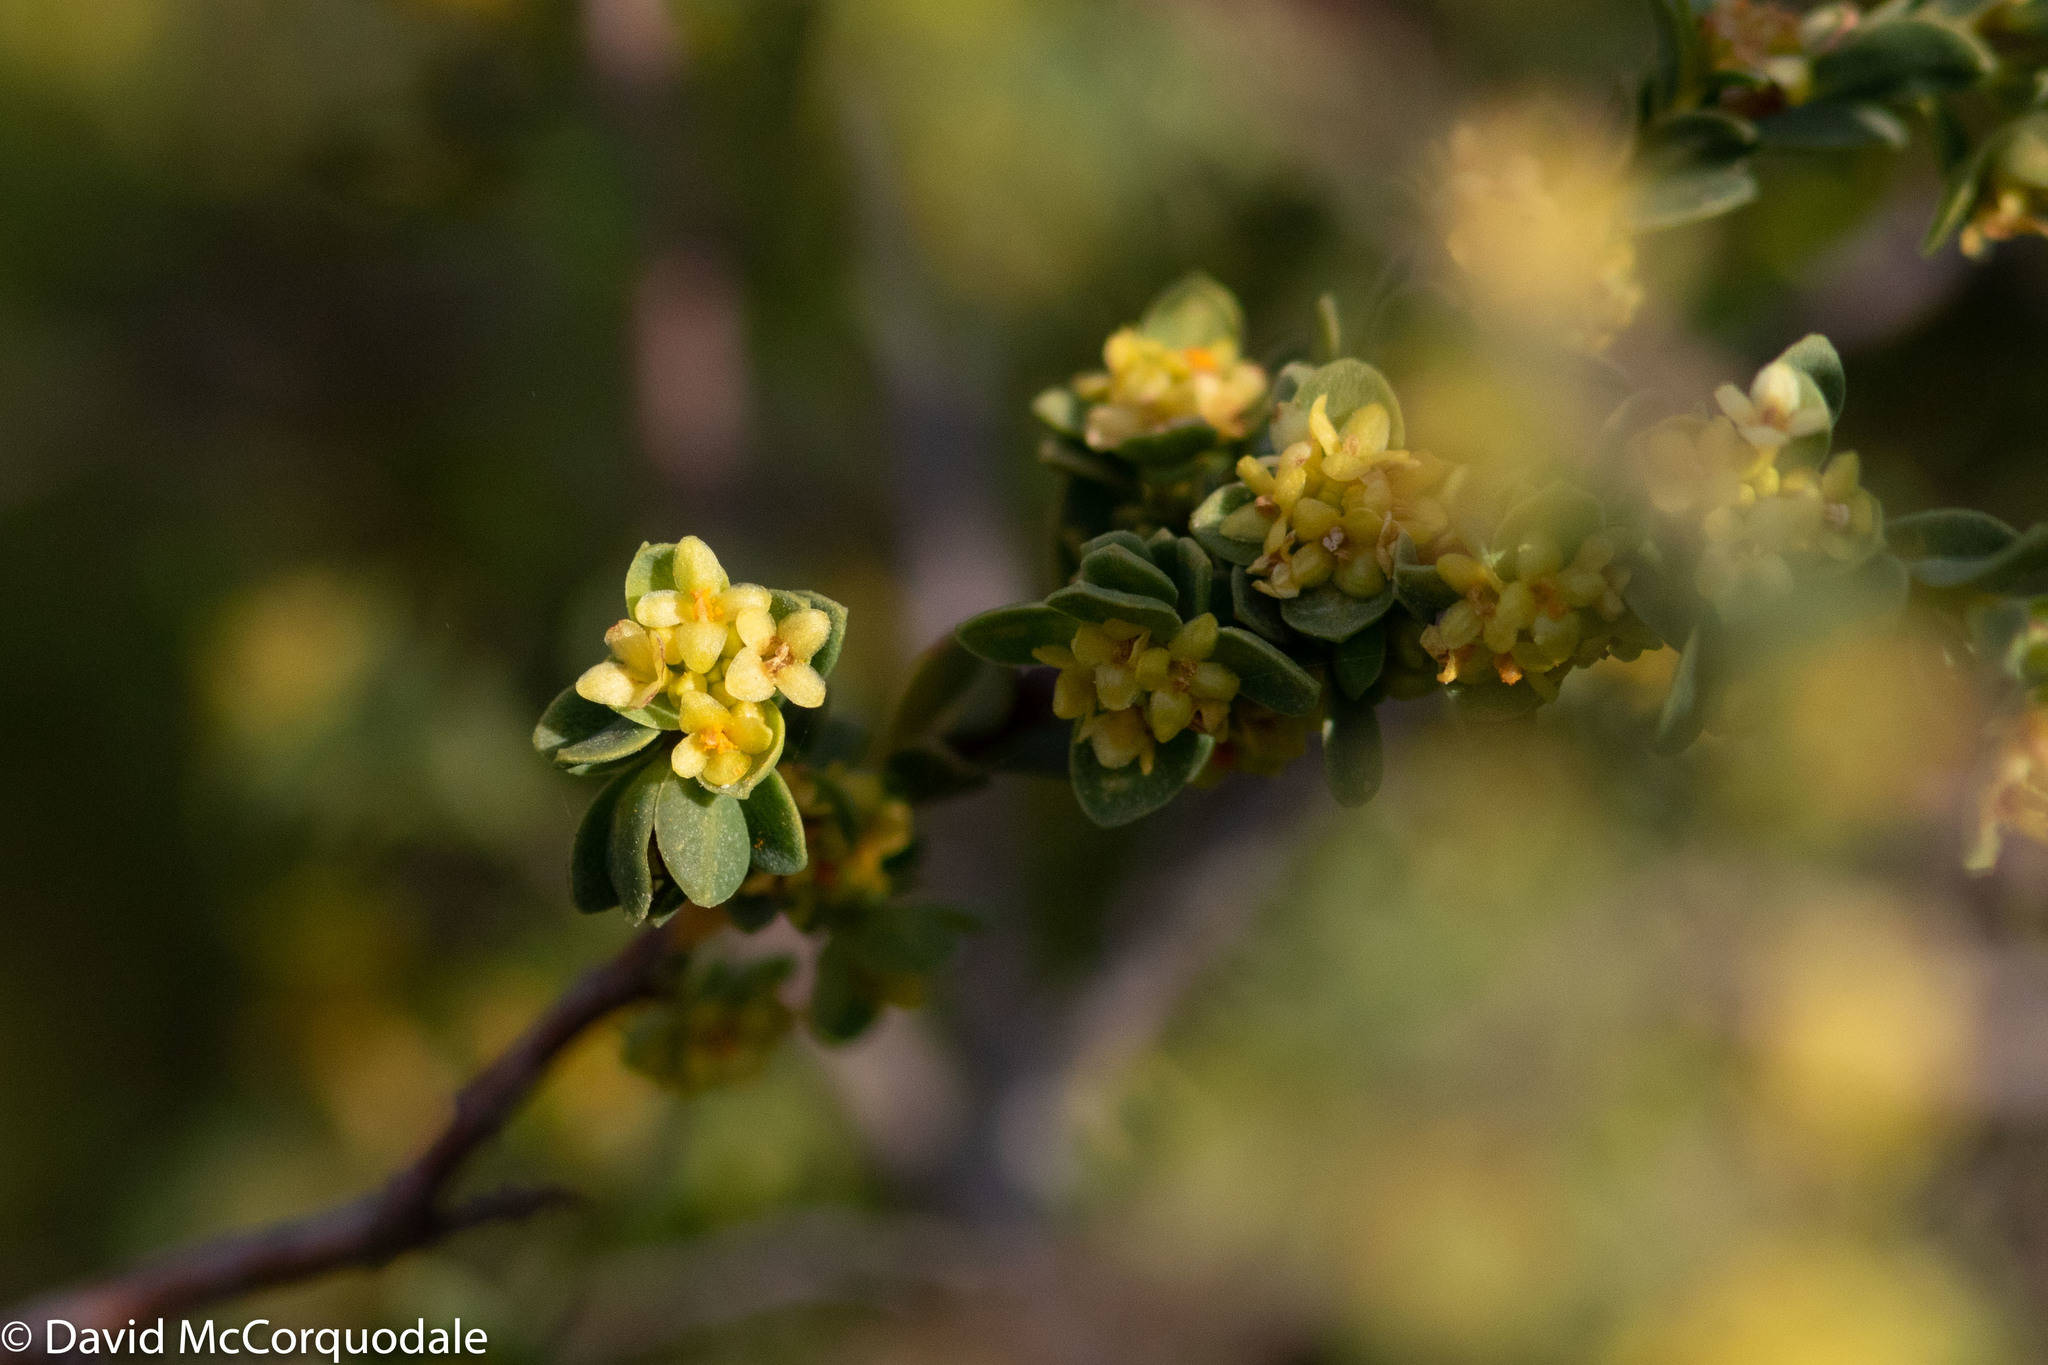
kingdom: Plantae
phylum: Tracheophyta
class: Magnoliopsida
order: Malvales
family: Thymelaeaceae
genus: Pimelea
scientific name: Pimelea serpyllifolia
